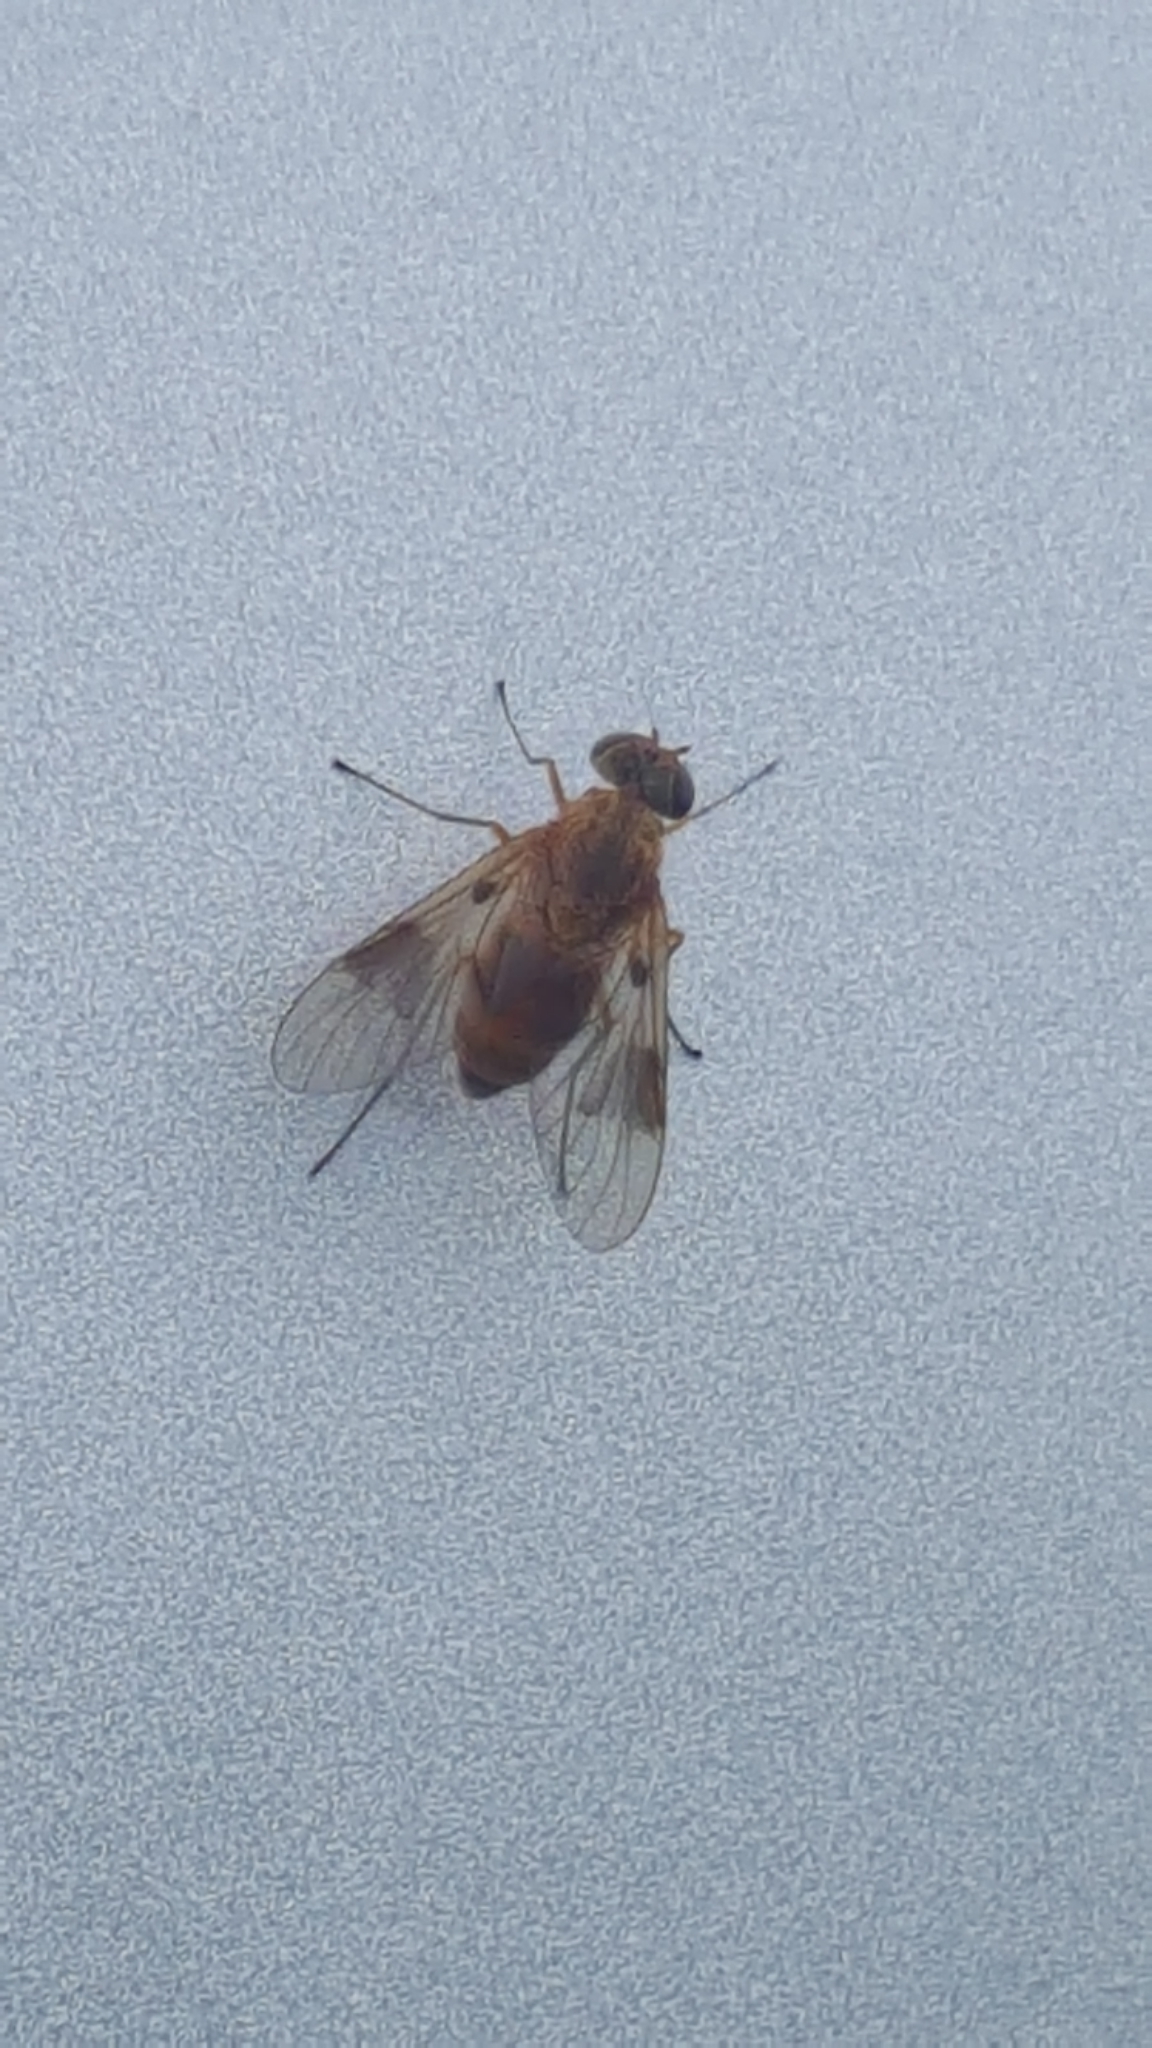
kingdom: Animalia
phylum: Arthropoda
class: Insecta
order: Diptera
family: Rhagionidae
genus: Chrysopilus
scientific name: Chrysopilus quadratus
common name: Quadrate snipe fly
